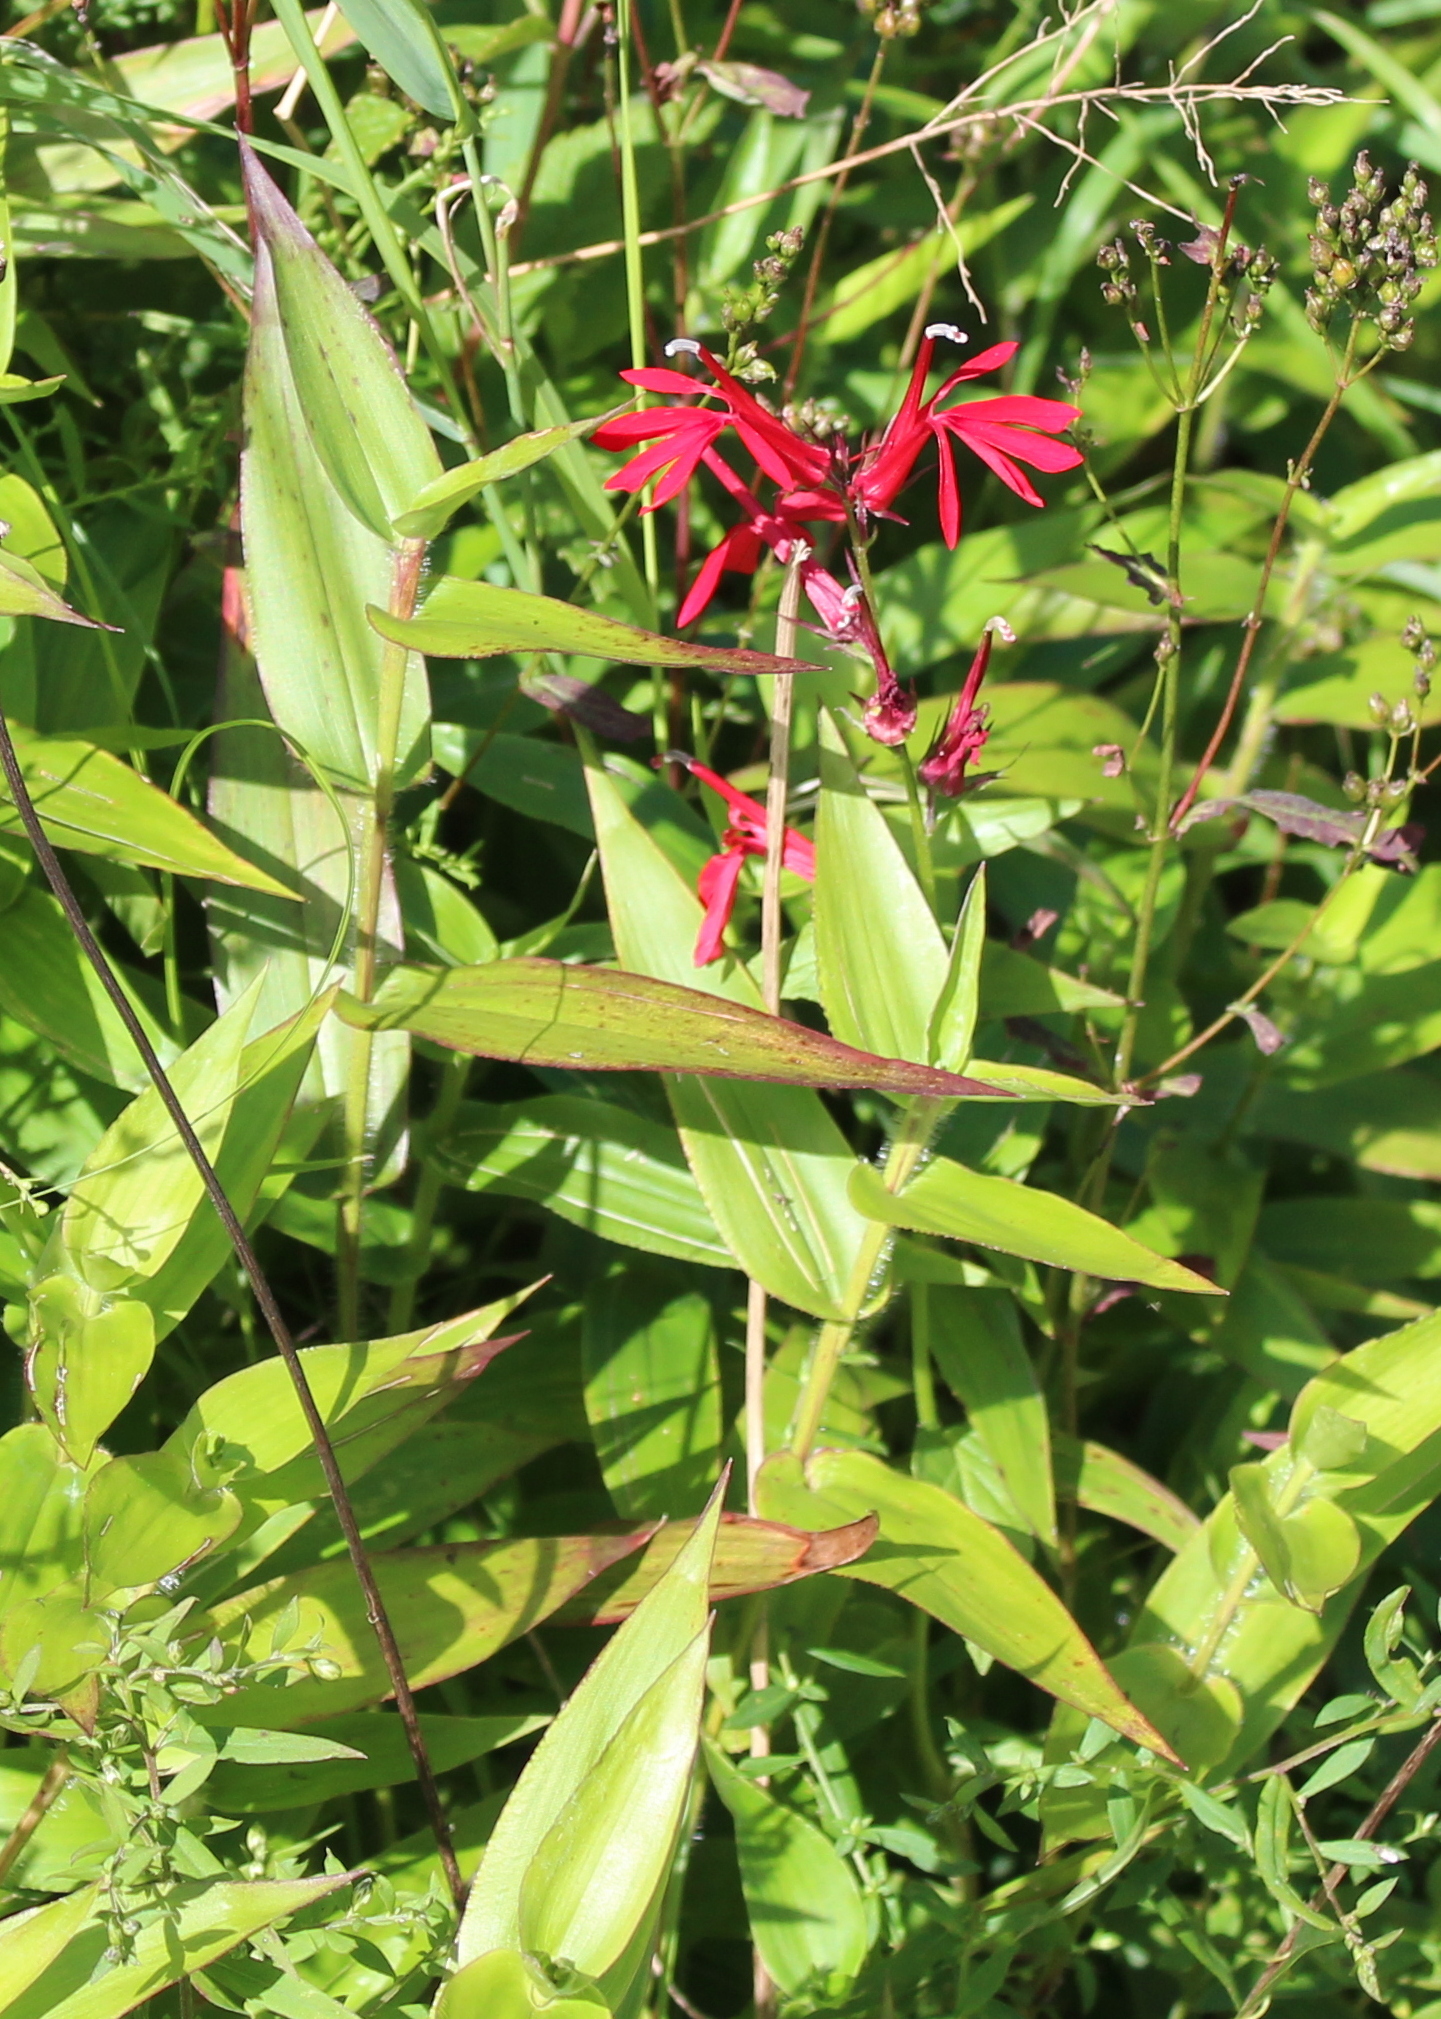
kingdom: Plantae
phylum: Tracheophyta
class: Magnoliopsida
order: Asterales
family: Campanulaceae
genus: Lobelia
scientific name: Lobelia cardinalis
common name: Cardinal flower
